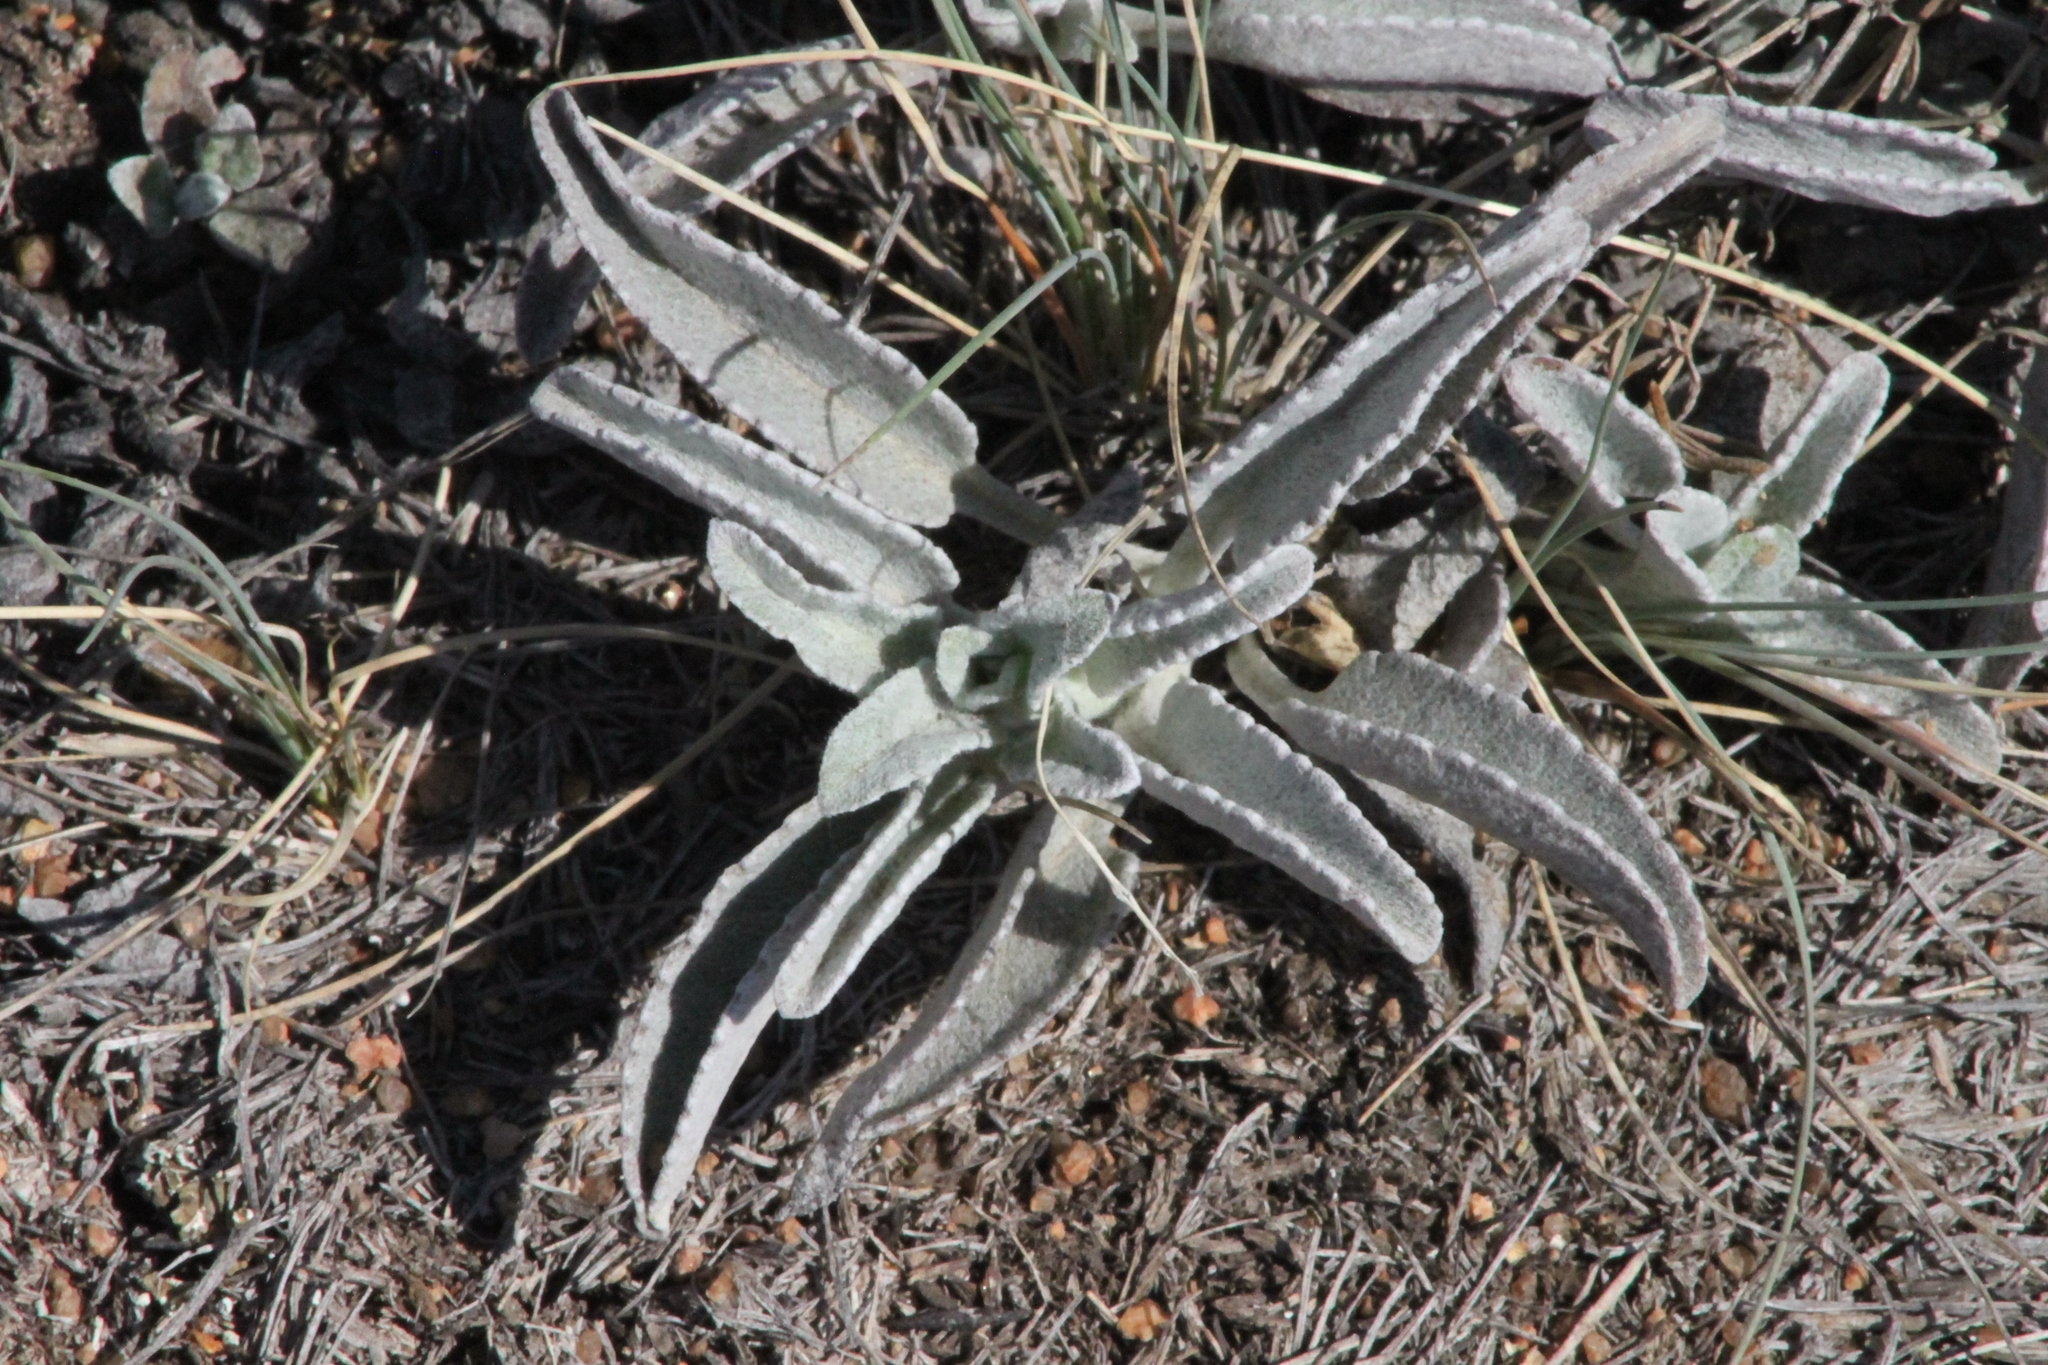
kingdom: Plantae
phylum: Tracheophyta
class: Magnoliopsida
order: Lamiales
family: Plantaginaceae
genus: Veronica
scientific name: Veronica incana
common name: Silver speedwell
